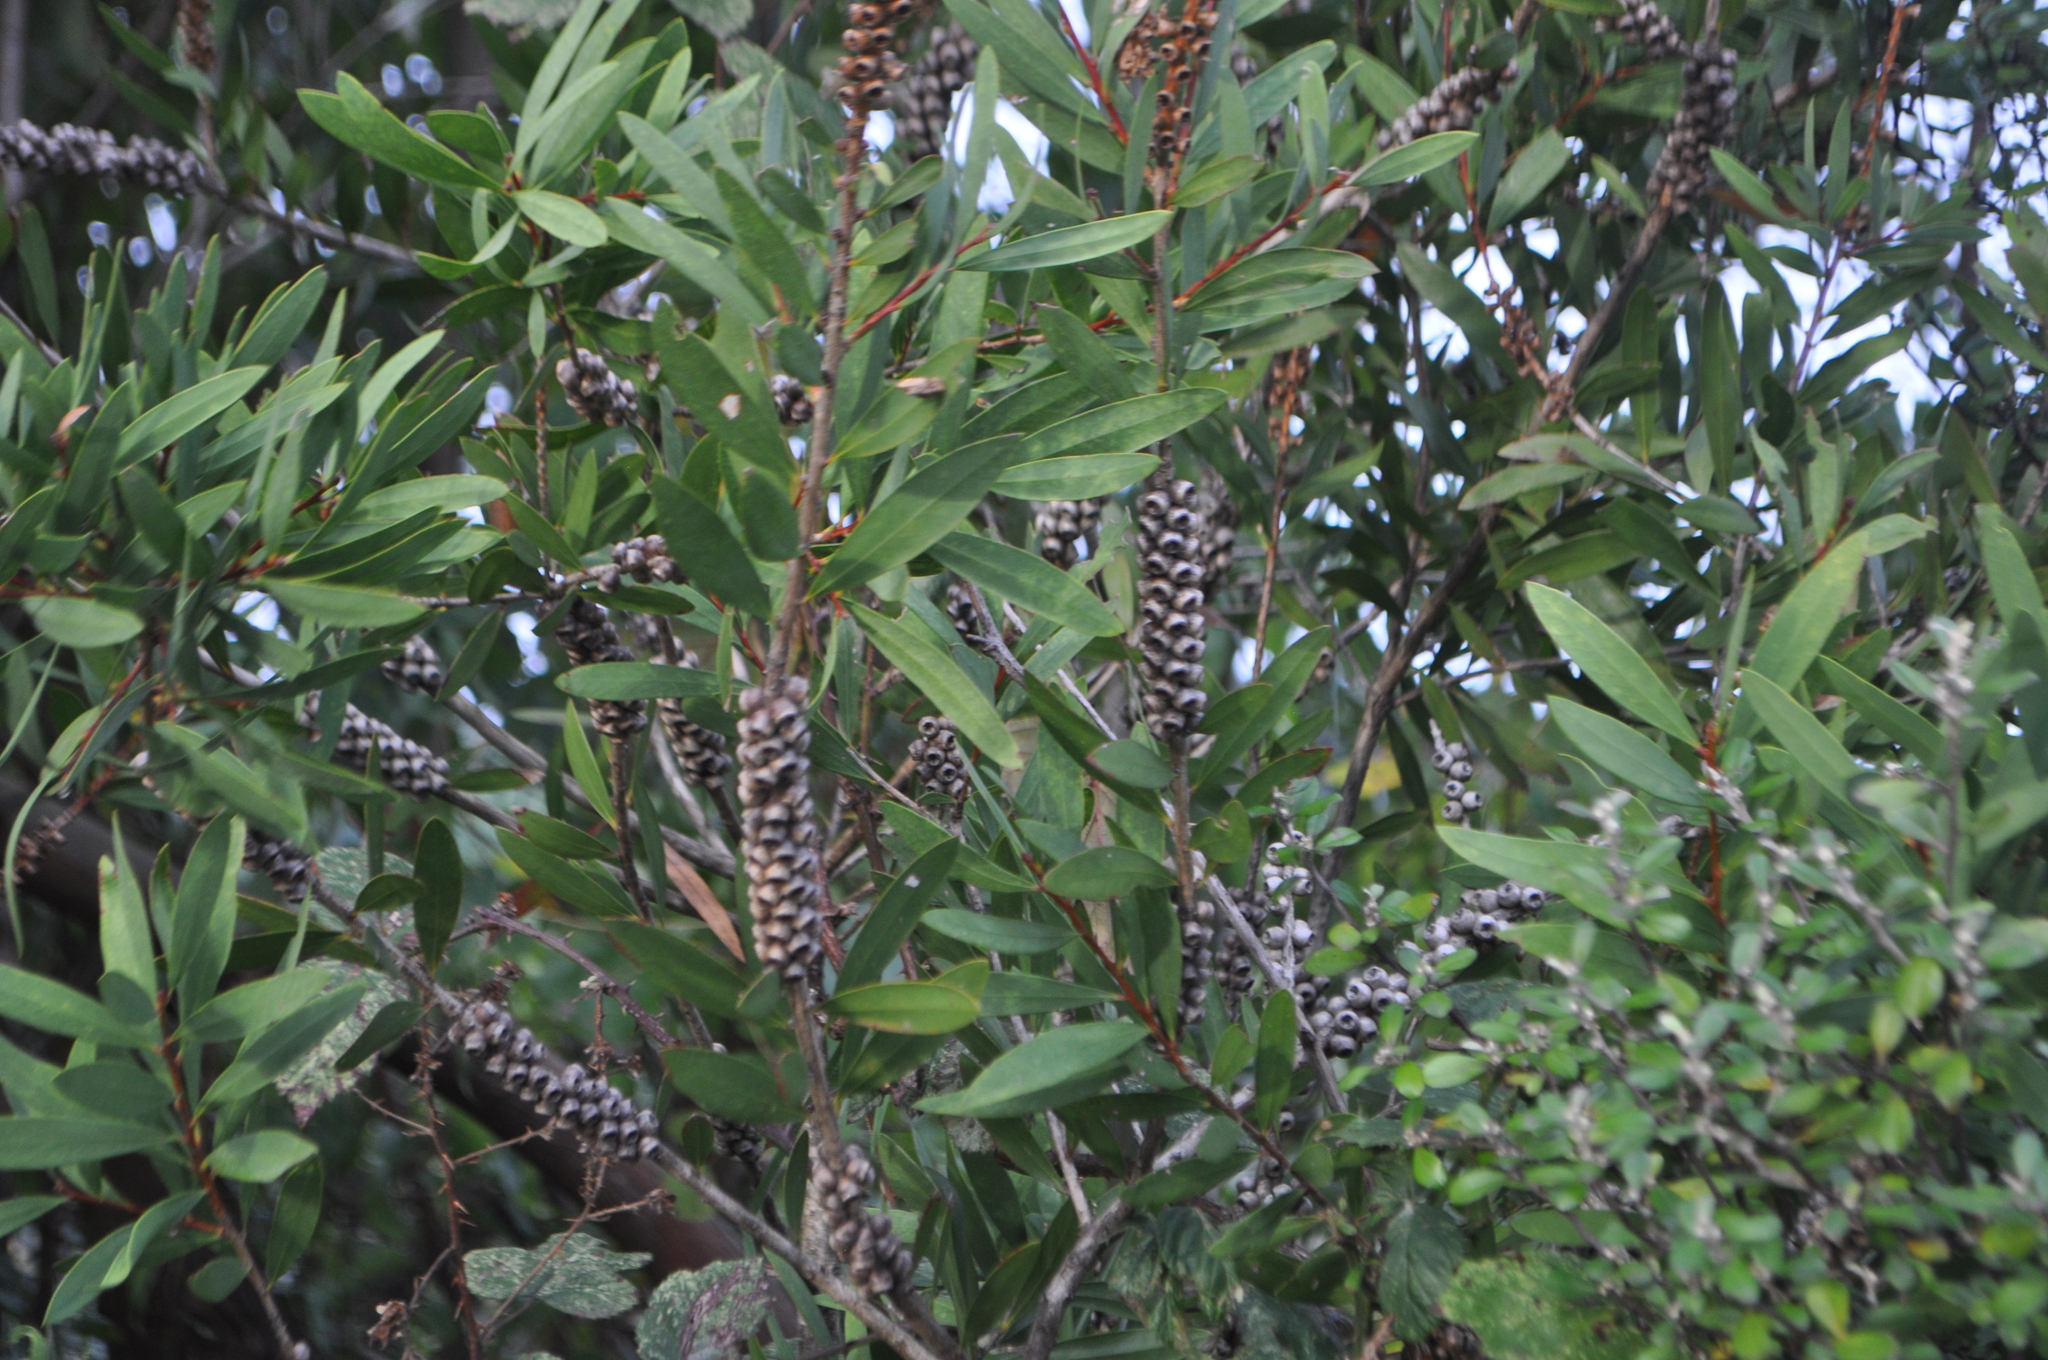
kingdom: Plantae
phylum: Tracheophyta
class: Magnoliopsida
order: Myrtales
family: Myrtaceae
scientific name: Myrtaceae
